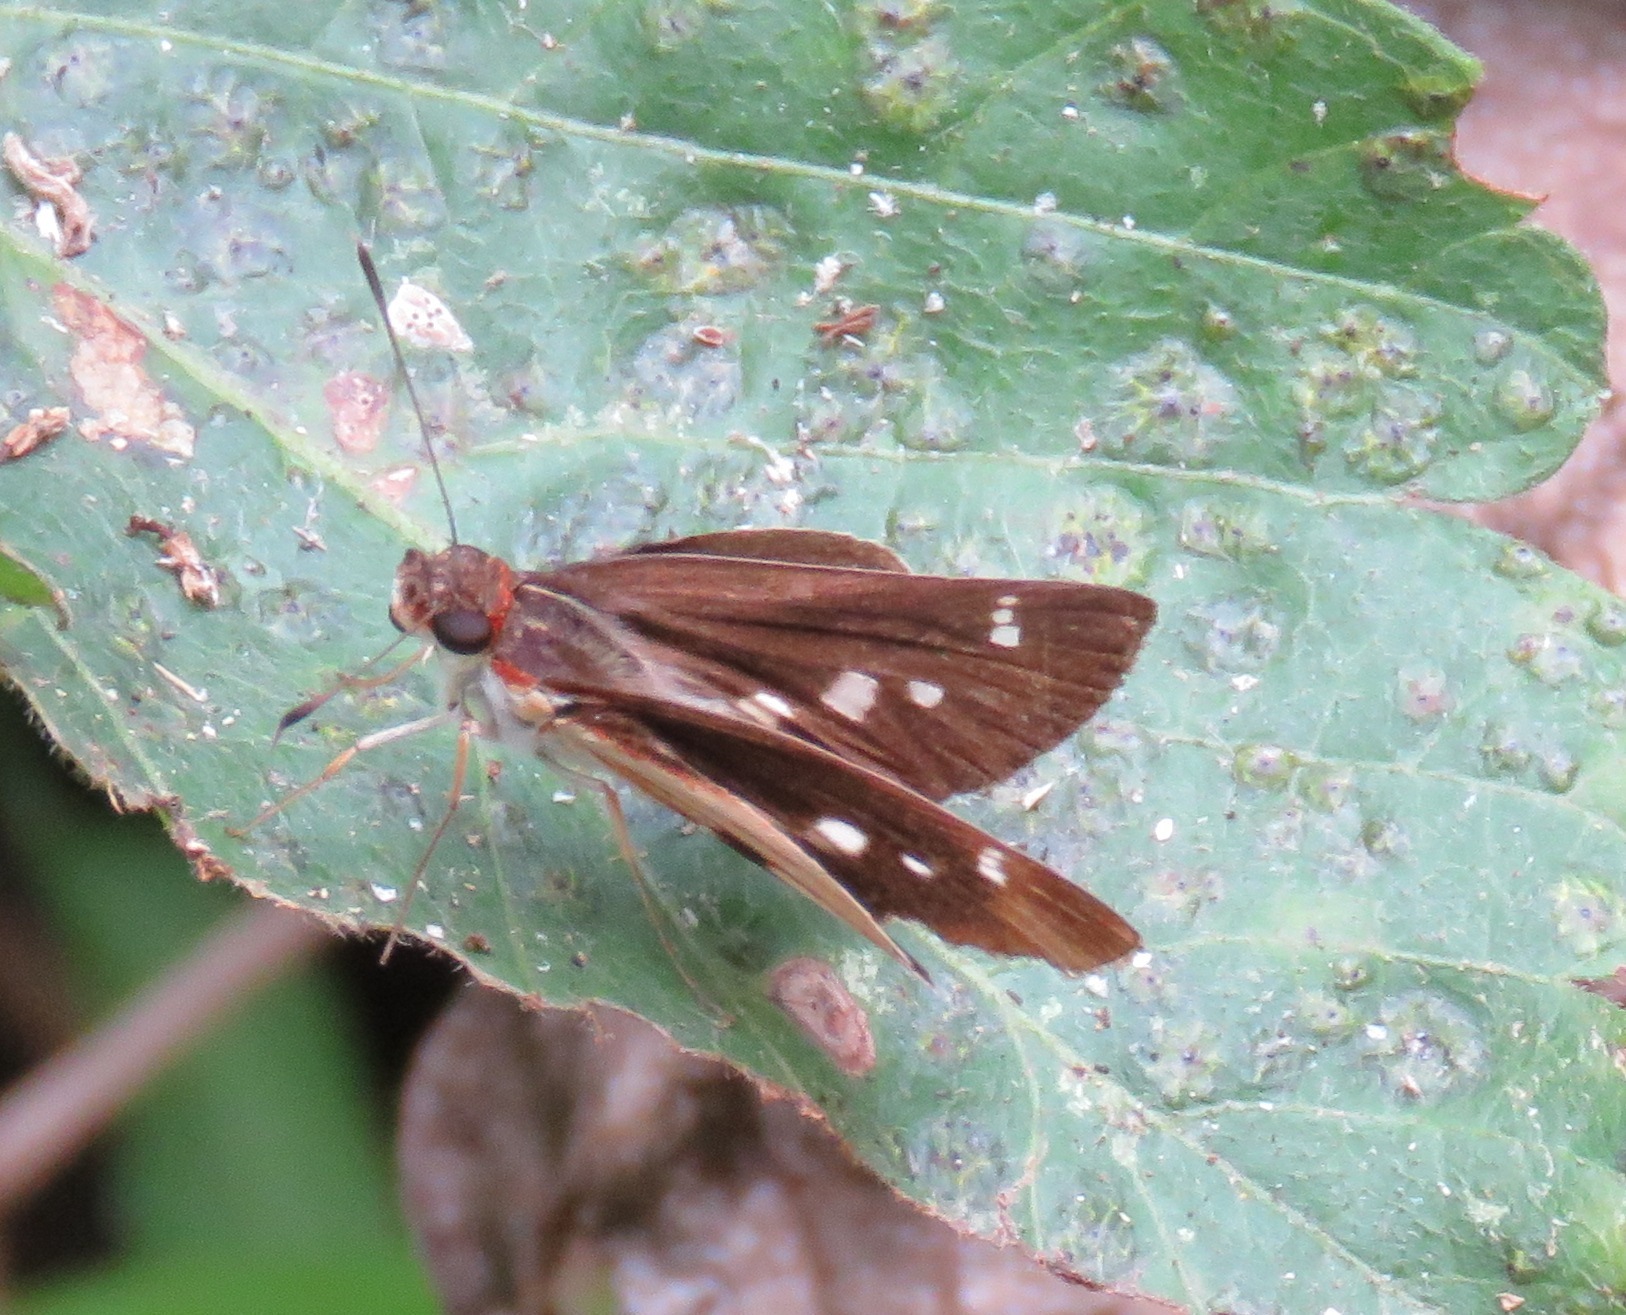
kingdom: Animalia
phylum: Arthropoda
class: Insecta
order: Lepidoptera
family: Hesperiidae
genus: Troyus
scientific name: Troyus fantasos
